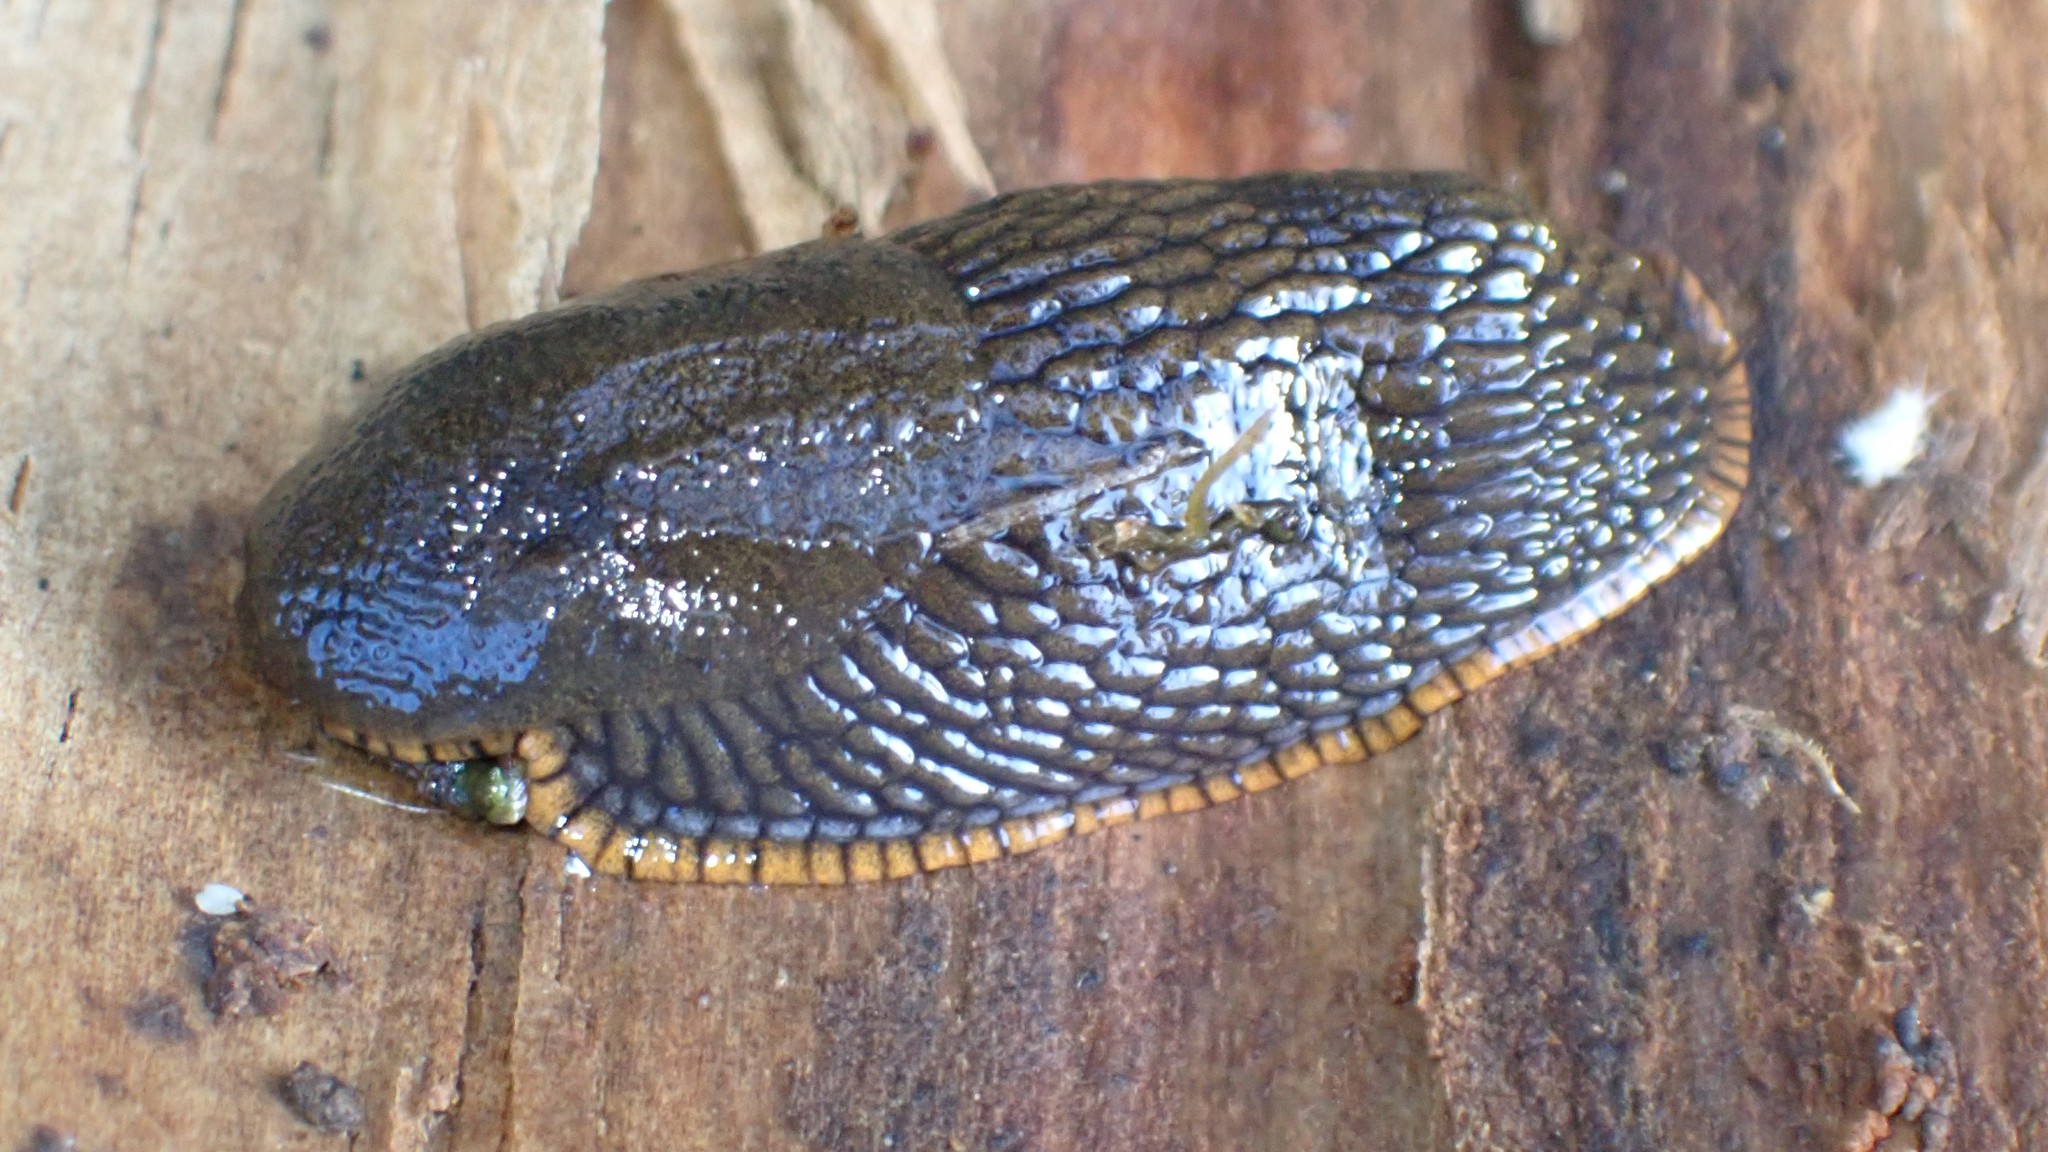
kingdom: Animalia
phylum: Mollusca
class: Gastropoda
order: Stylommatophora
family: Arionidae
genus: Arion
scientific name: Arion
